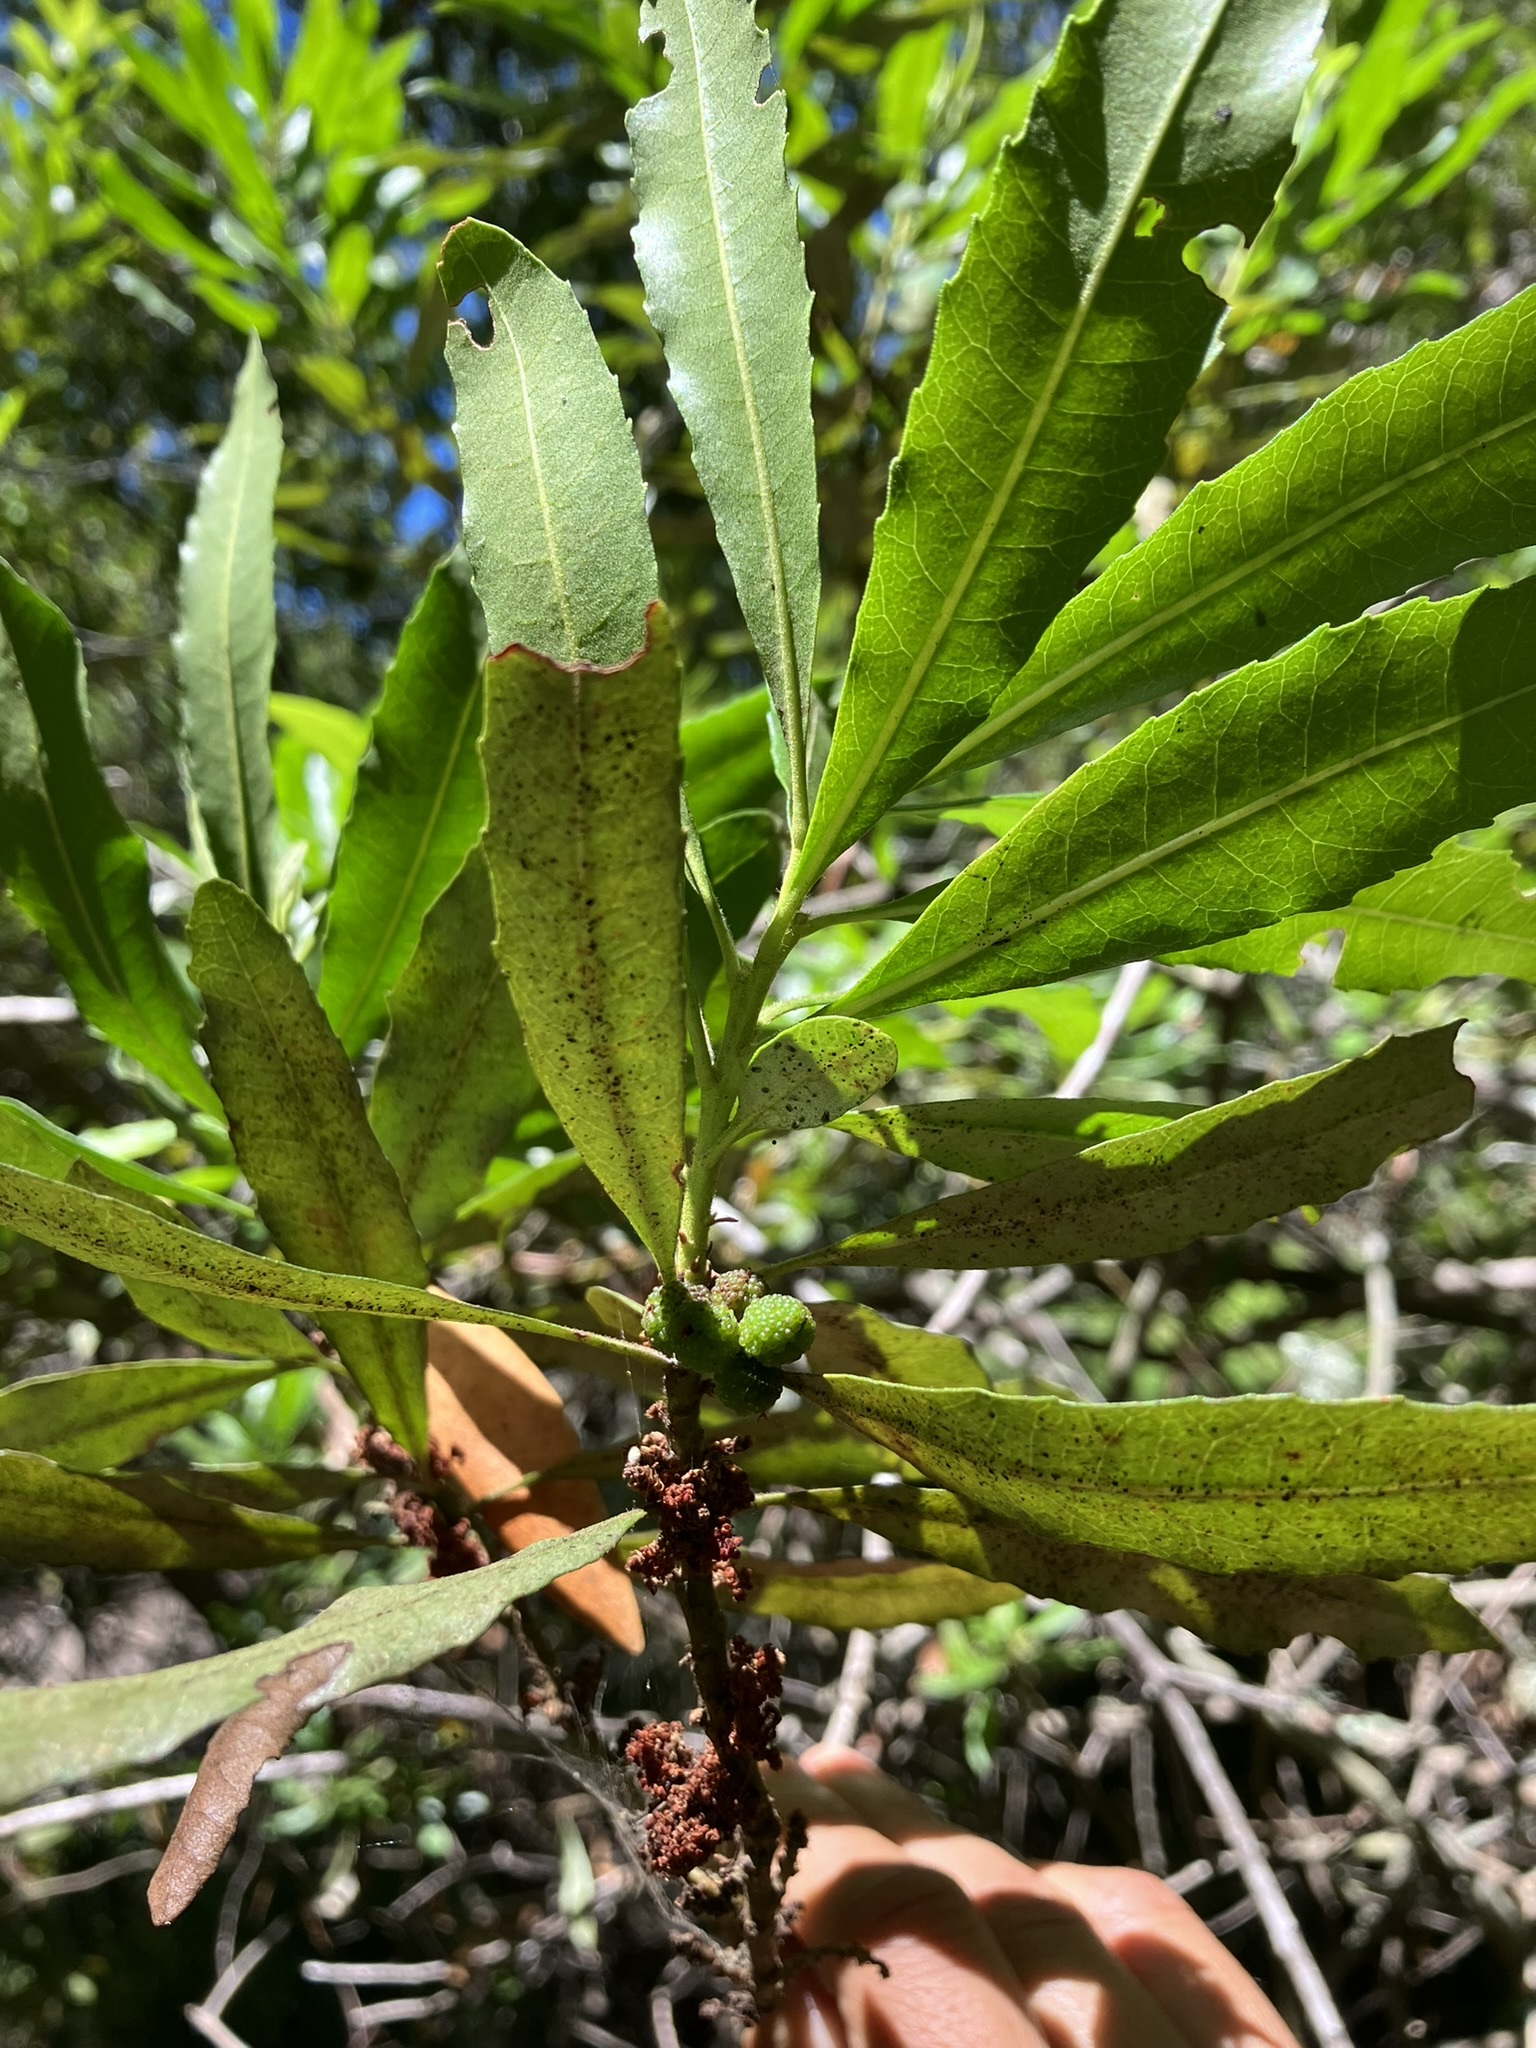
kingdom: Plantae
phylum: Tracheophyta
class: Magnoliopsida
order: Fagales
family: Myricaceae
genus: Morella
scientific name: Morella californica
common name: California wax-myrtle
